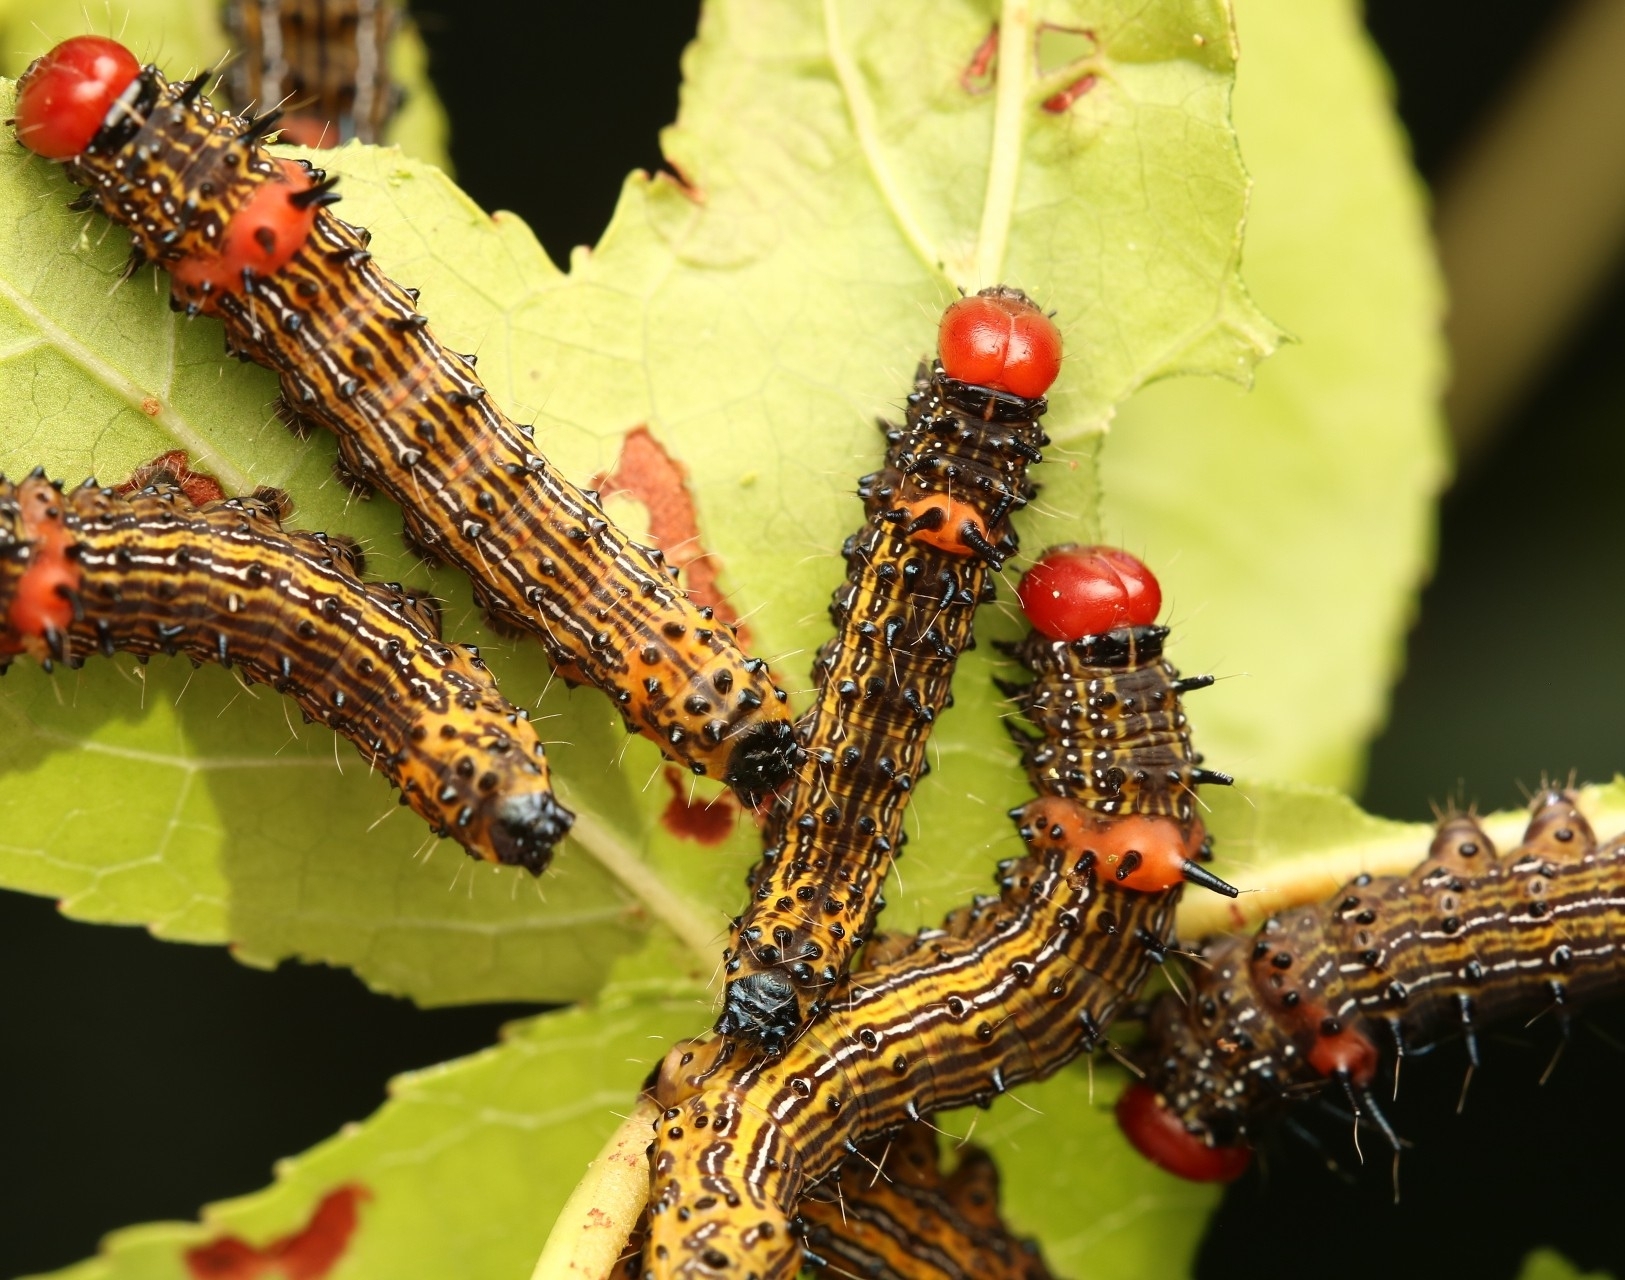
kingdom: Animalia
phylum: Arthropoda
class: Insecta
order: Lepidoptera
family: Notodontidae
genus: Schizura
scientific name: Schizura
